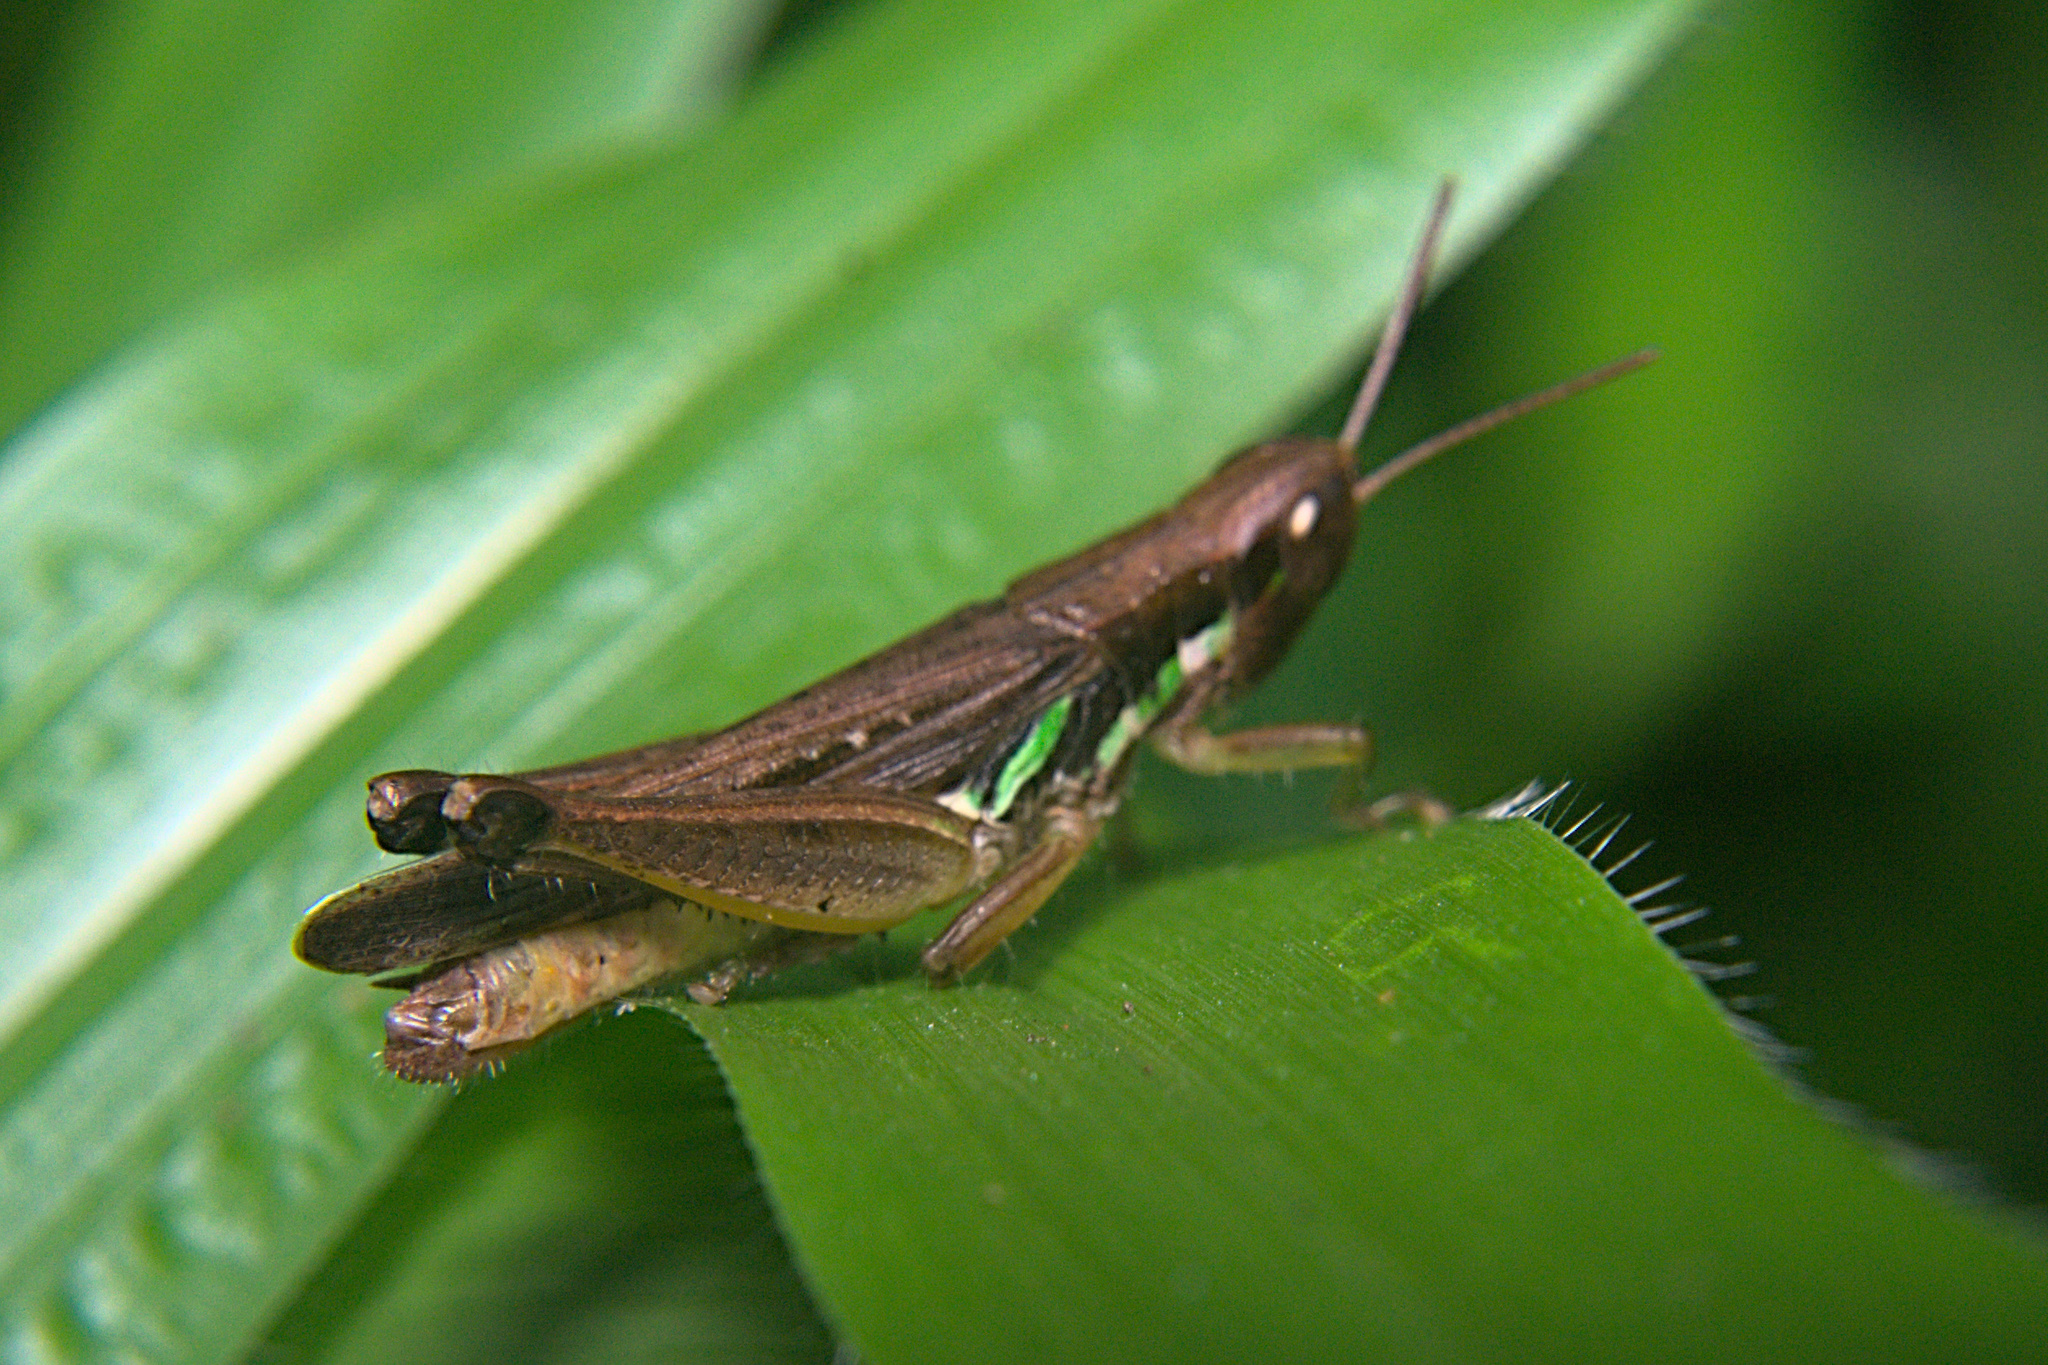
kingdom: Animalia
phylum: Arthropoda
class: Insecta
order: Orthoptera
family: Acrididae
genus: Spathosternum
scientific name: Spathosternum prasiniferum
